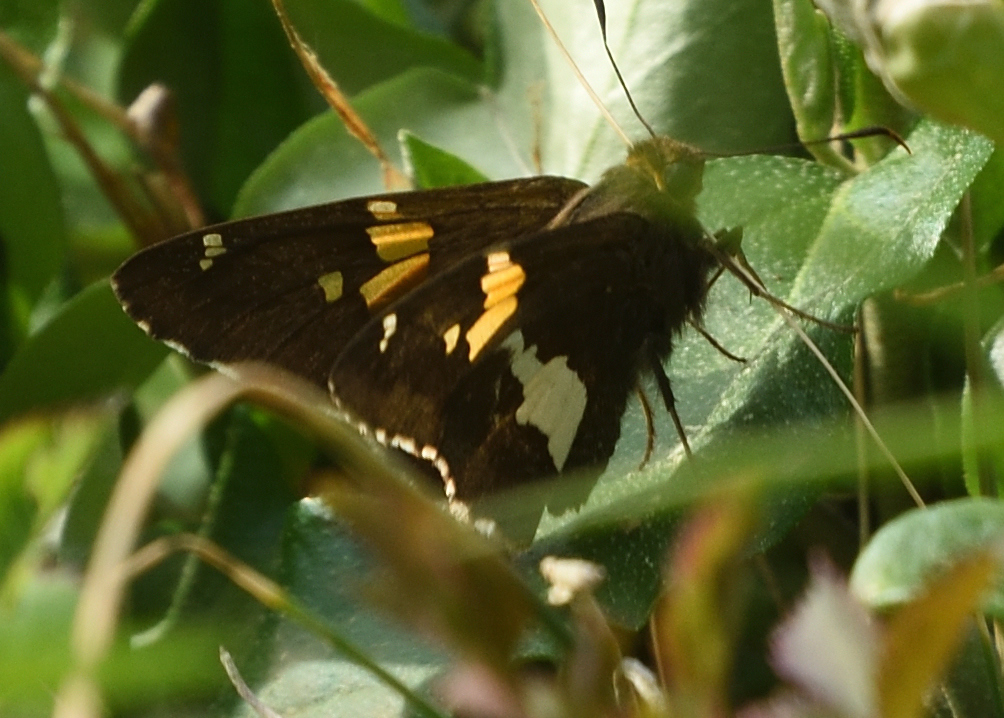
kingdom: Animalia
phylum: Arthropoda
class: Insecta
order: Lepidoptera
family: Hesperiidae
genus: Epargyreus
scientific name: Epargyreus clarus
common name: Silver-spotted skipper
